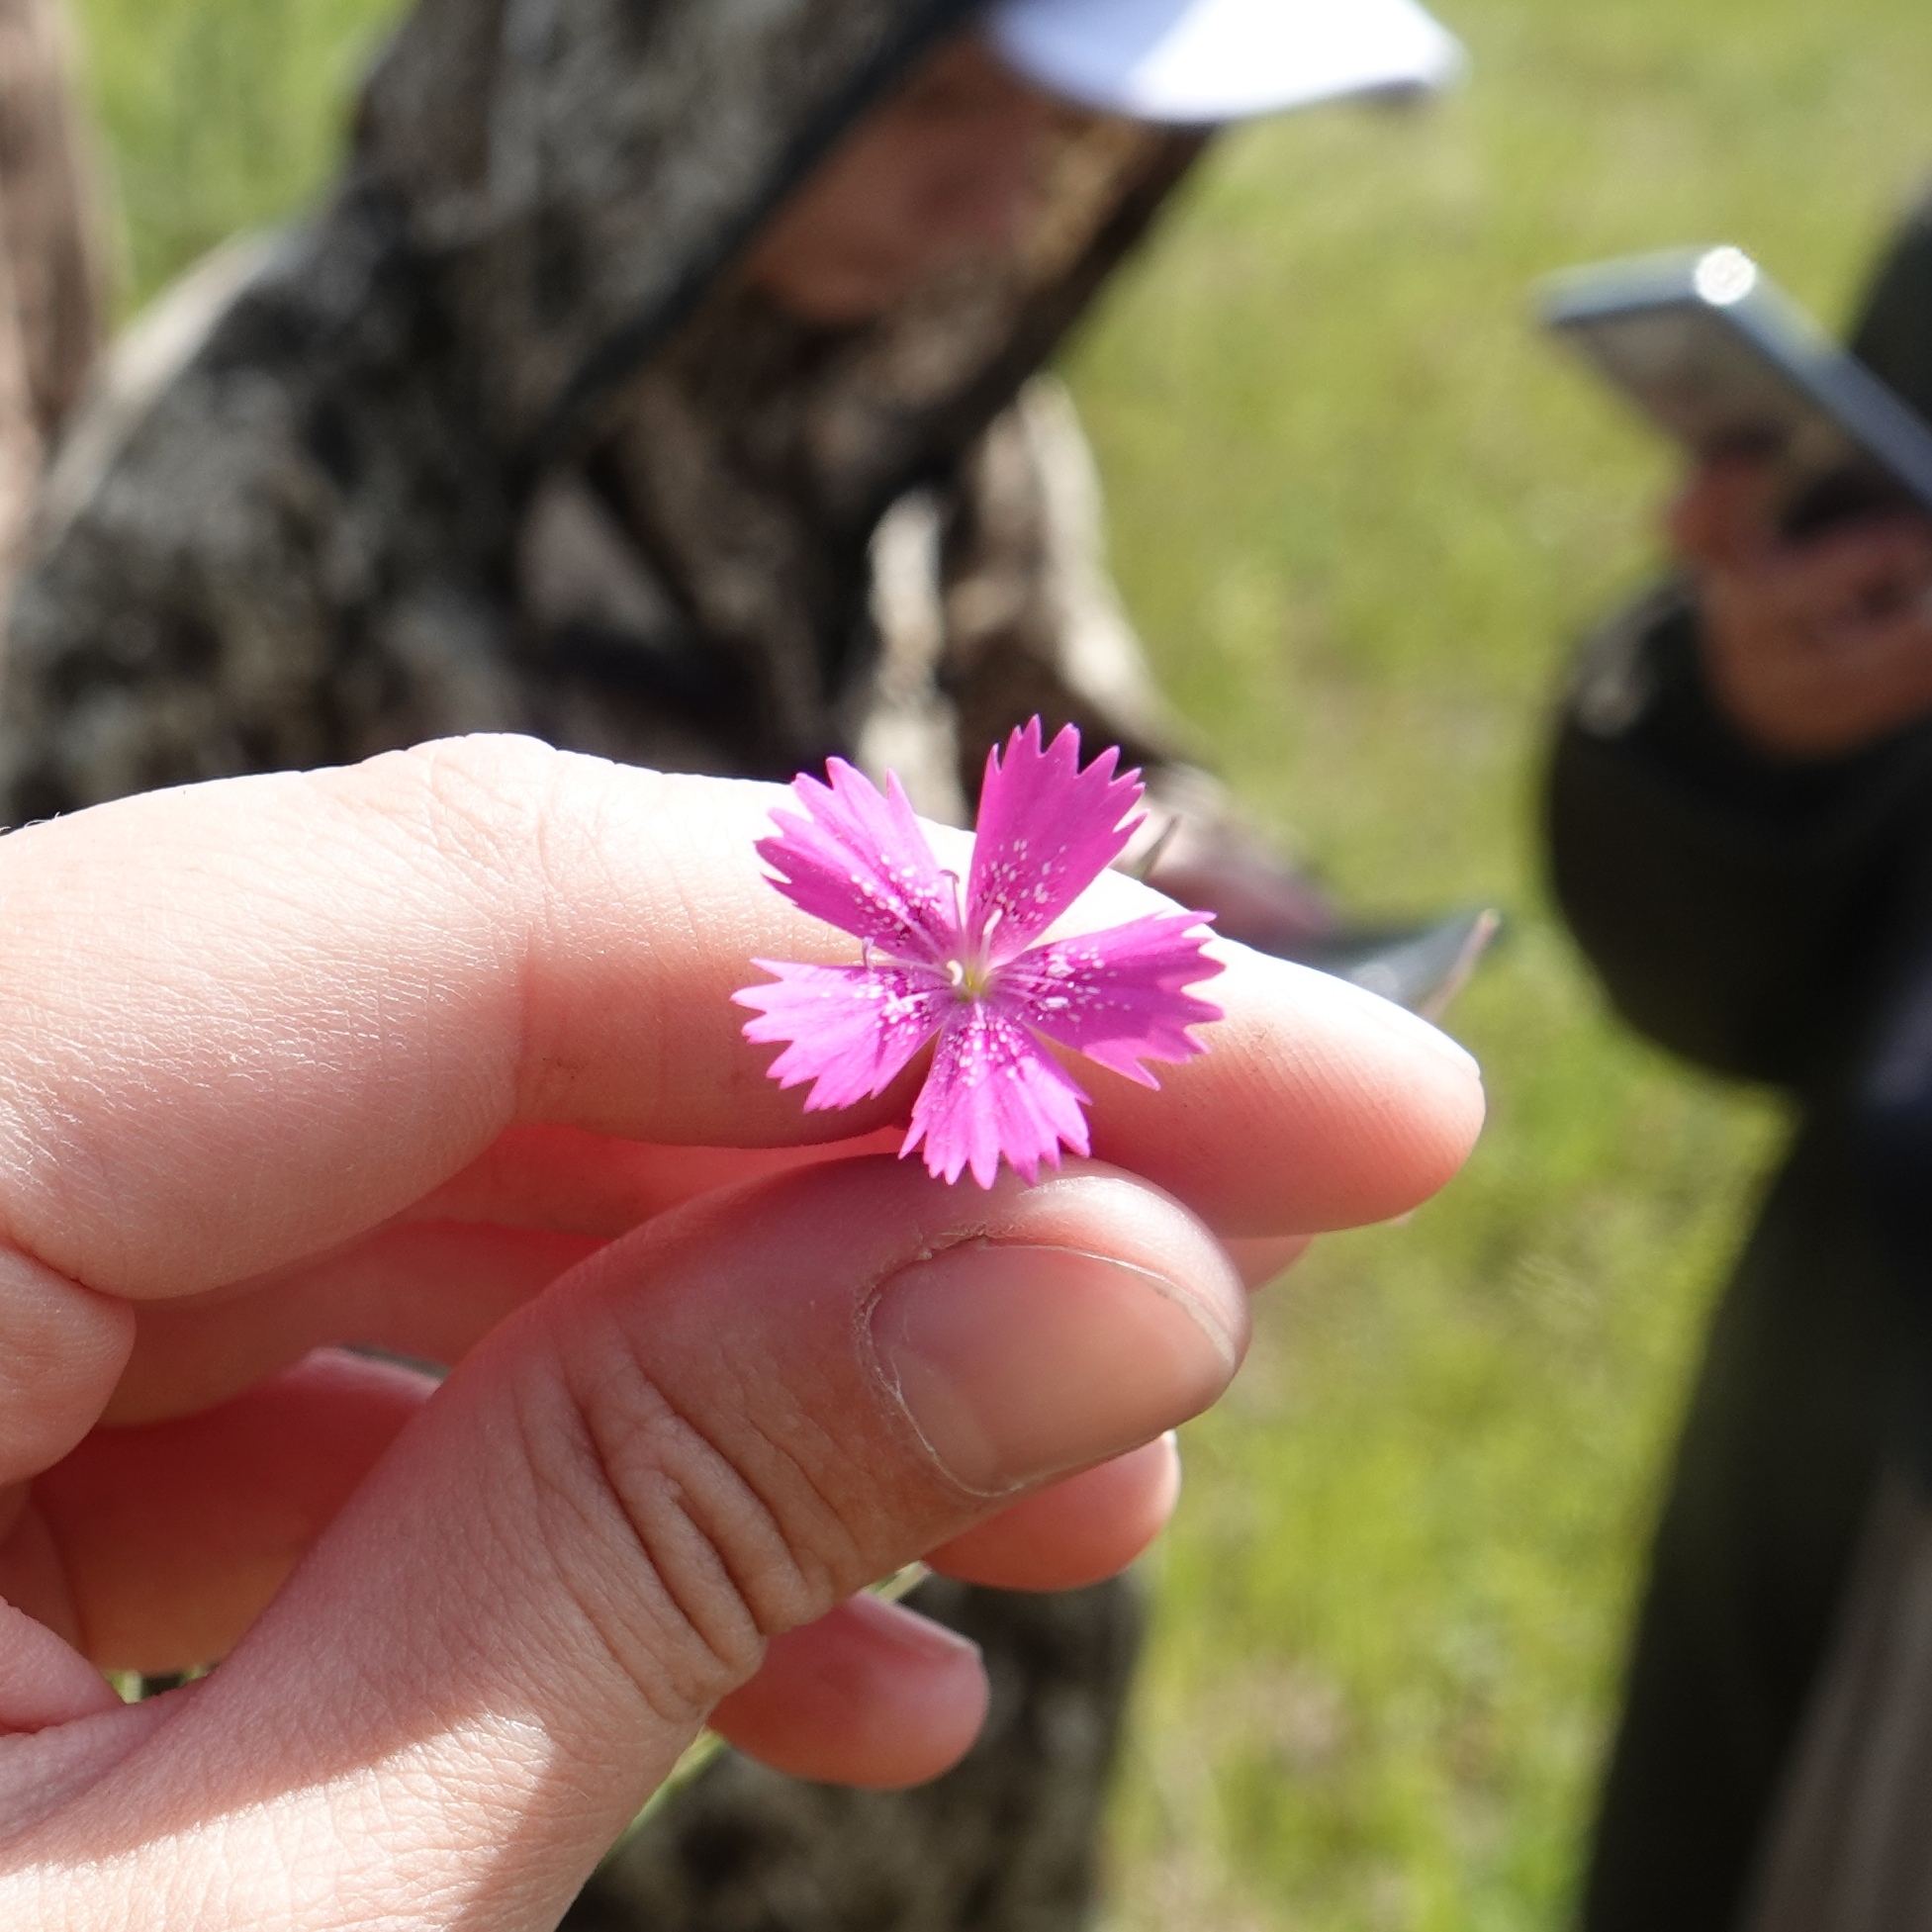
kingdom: Plantae
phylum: Tracheophyta
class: Magnoliopsida
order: Caryophyllales
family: Caryophyllaceae
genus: Dianthus
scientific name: Dianthus deltoides
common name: Maiden pink
